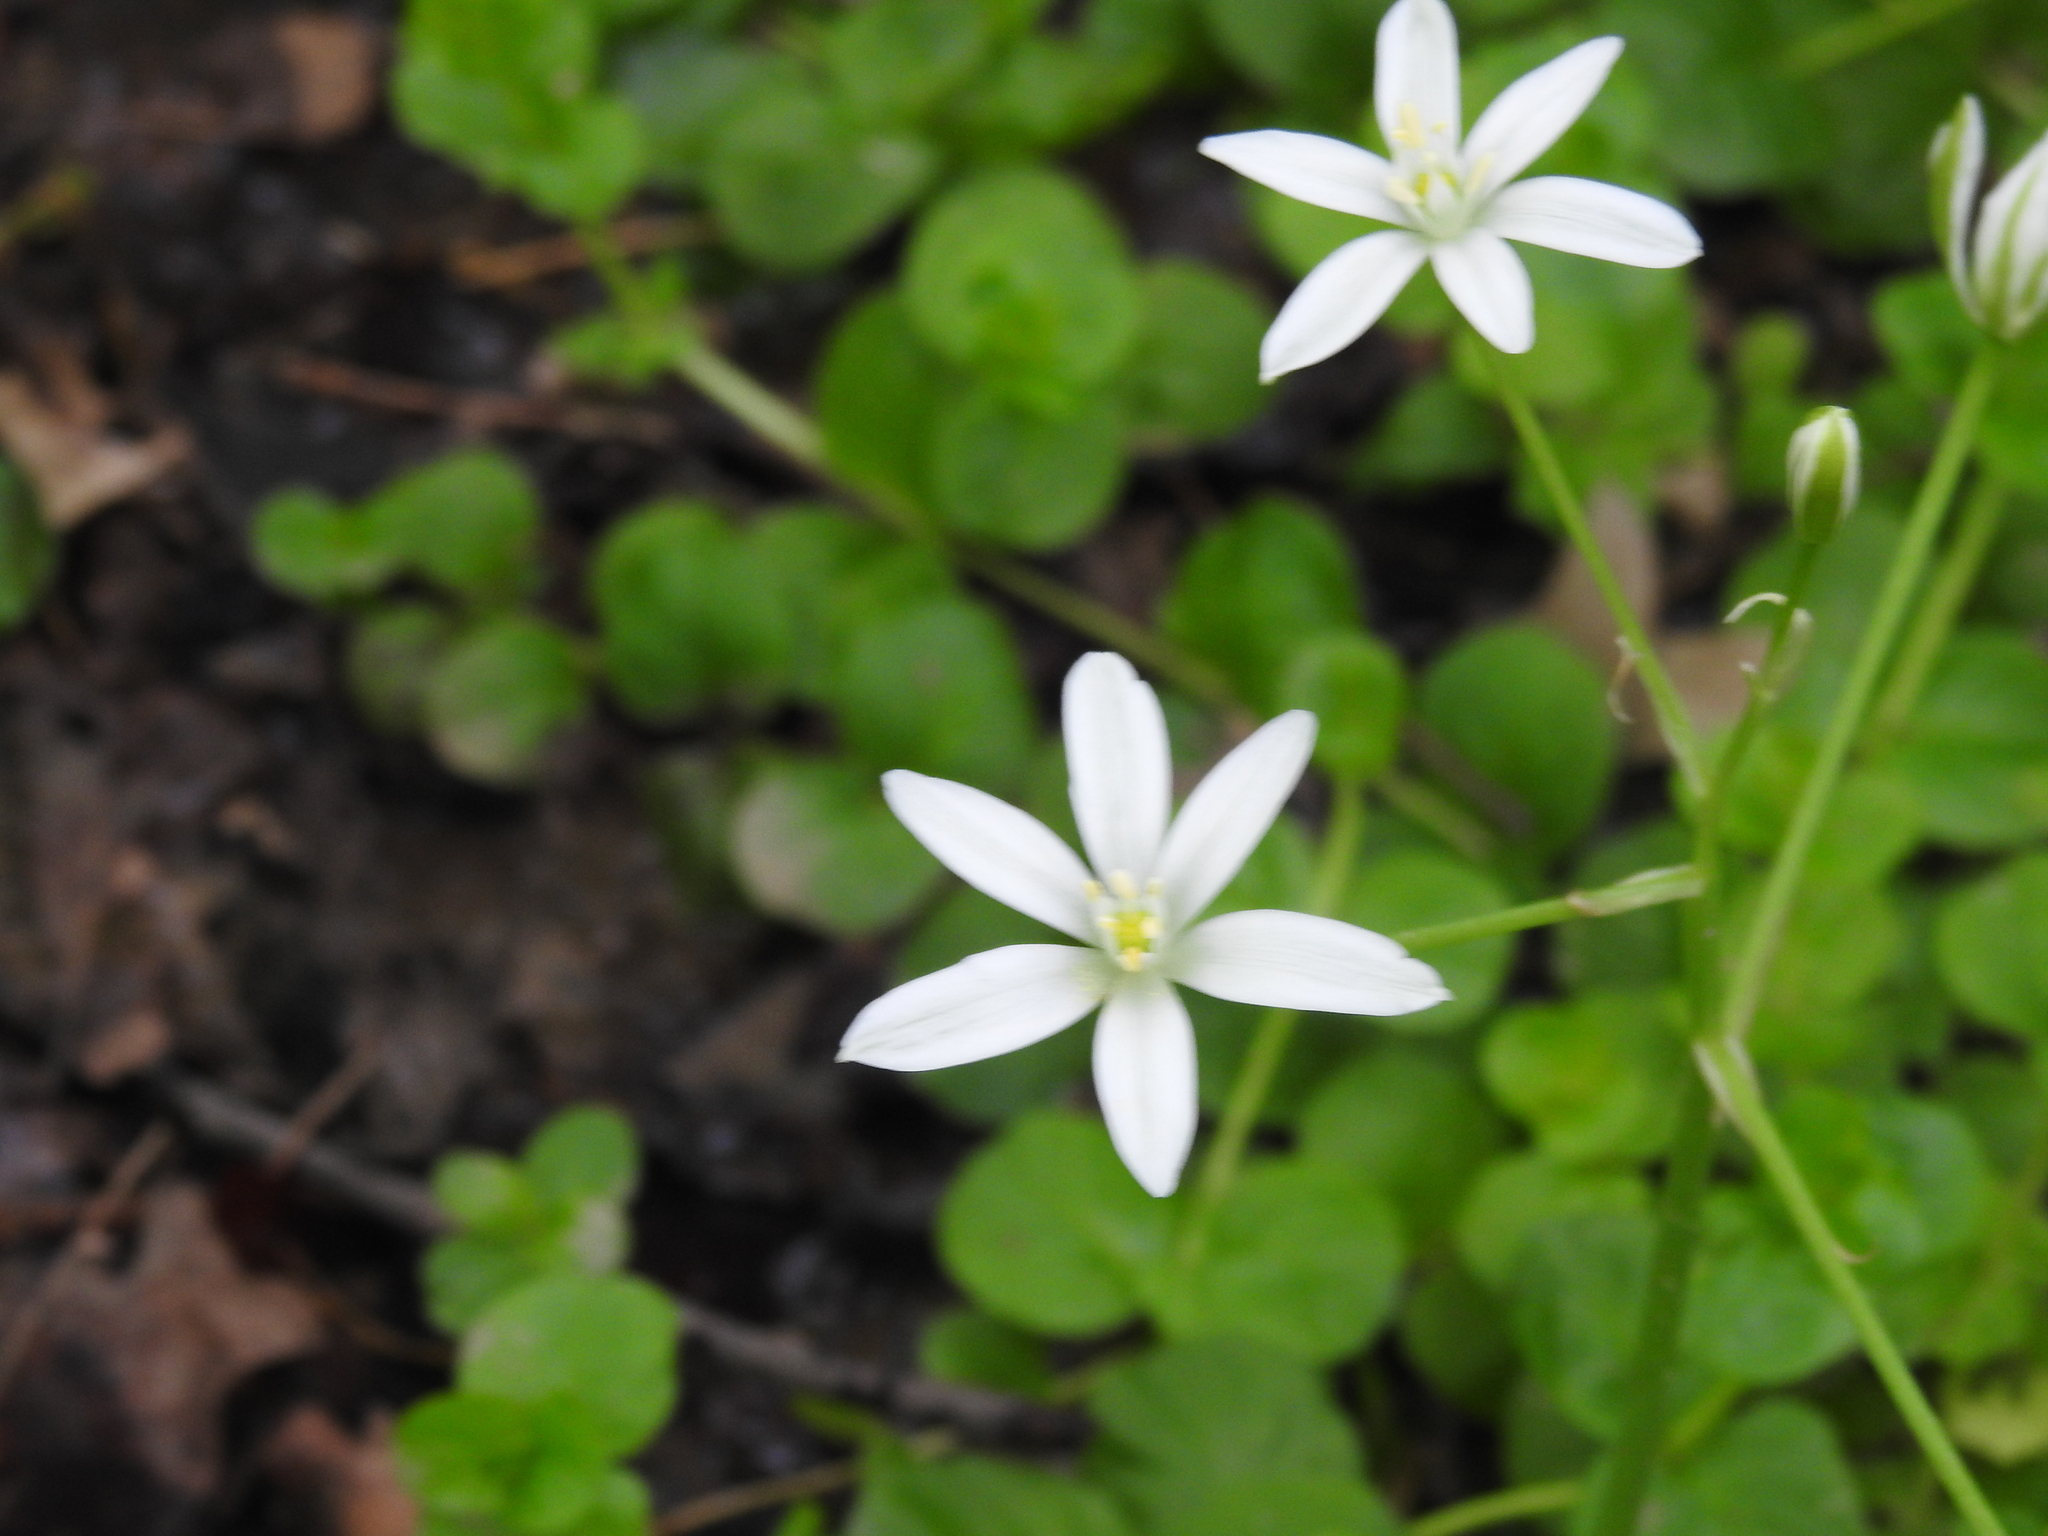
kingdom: Plantae
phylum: Tracheophyta
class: Liliopsida
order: Asparagales
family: Asparagaceae
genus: Ornithogalum
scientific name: Ornithogalum umbellatum
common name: Garden star-of-bethlehem
